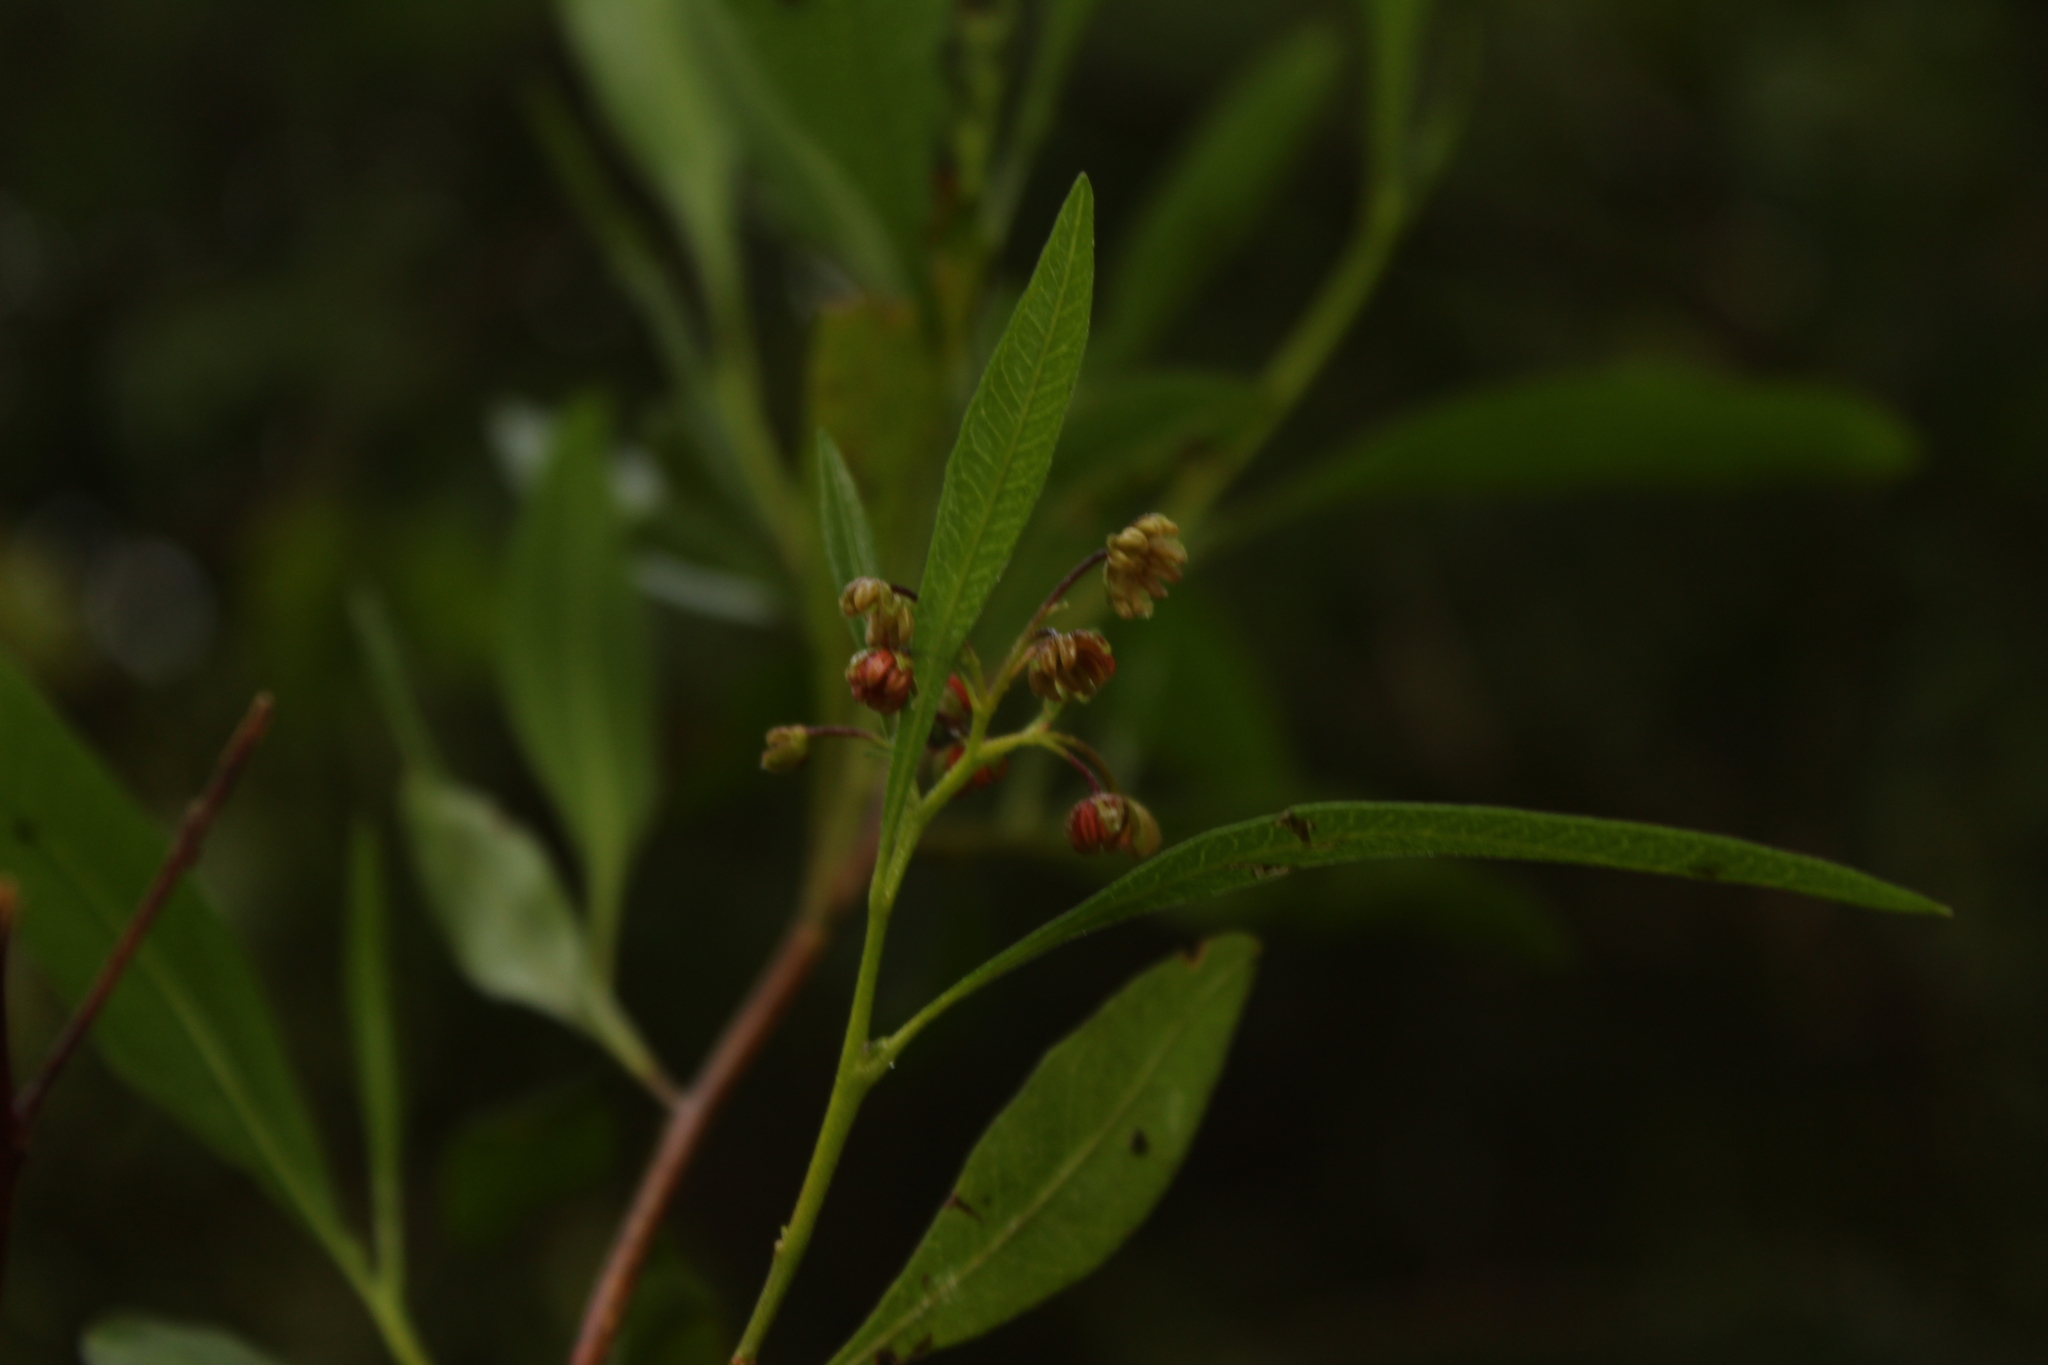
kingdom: Plantae
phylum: Tracheophyta
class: Magnoliopsida
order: Sapindales
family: Sapindaceae
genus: Dodonaea
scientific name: Dodonaea viscosa
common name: Hopbush
